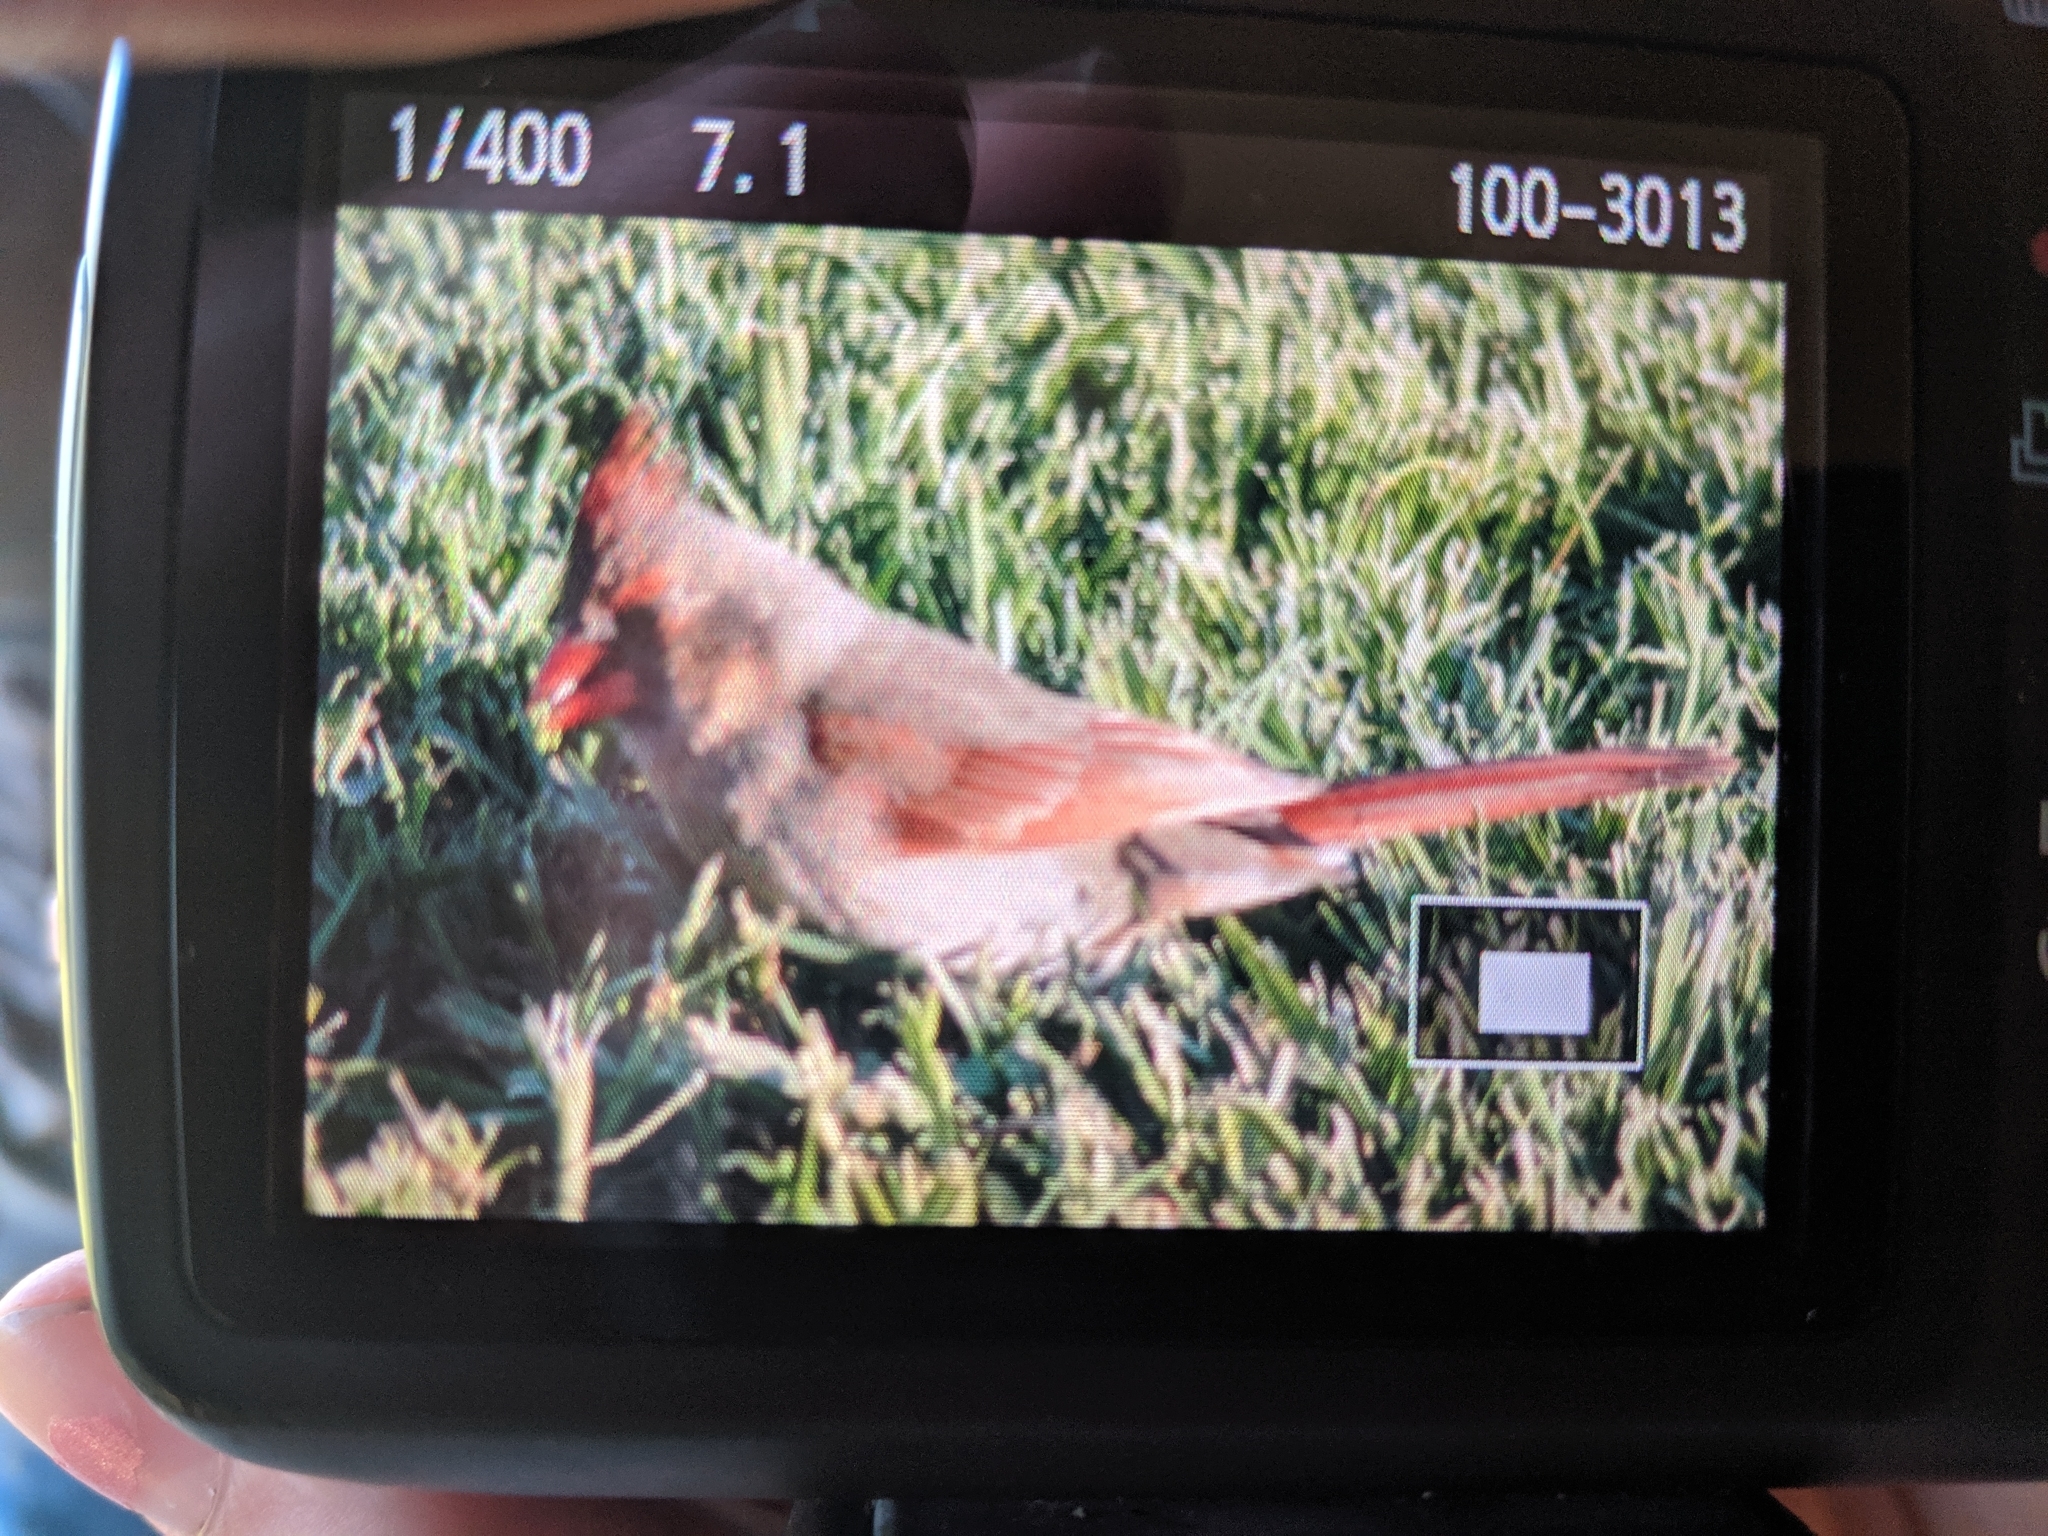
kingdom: Animalia
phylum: Chordata
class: Aves
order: Passeriformes
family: Cardinalidae
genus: Cardinalis
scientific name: Cardinalis cardinalis
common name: Northern cardinal
